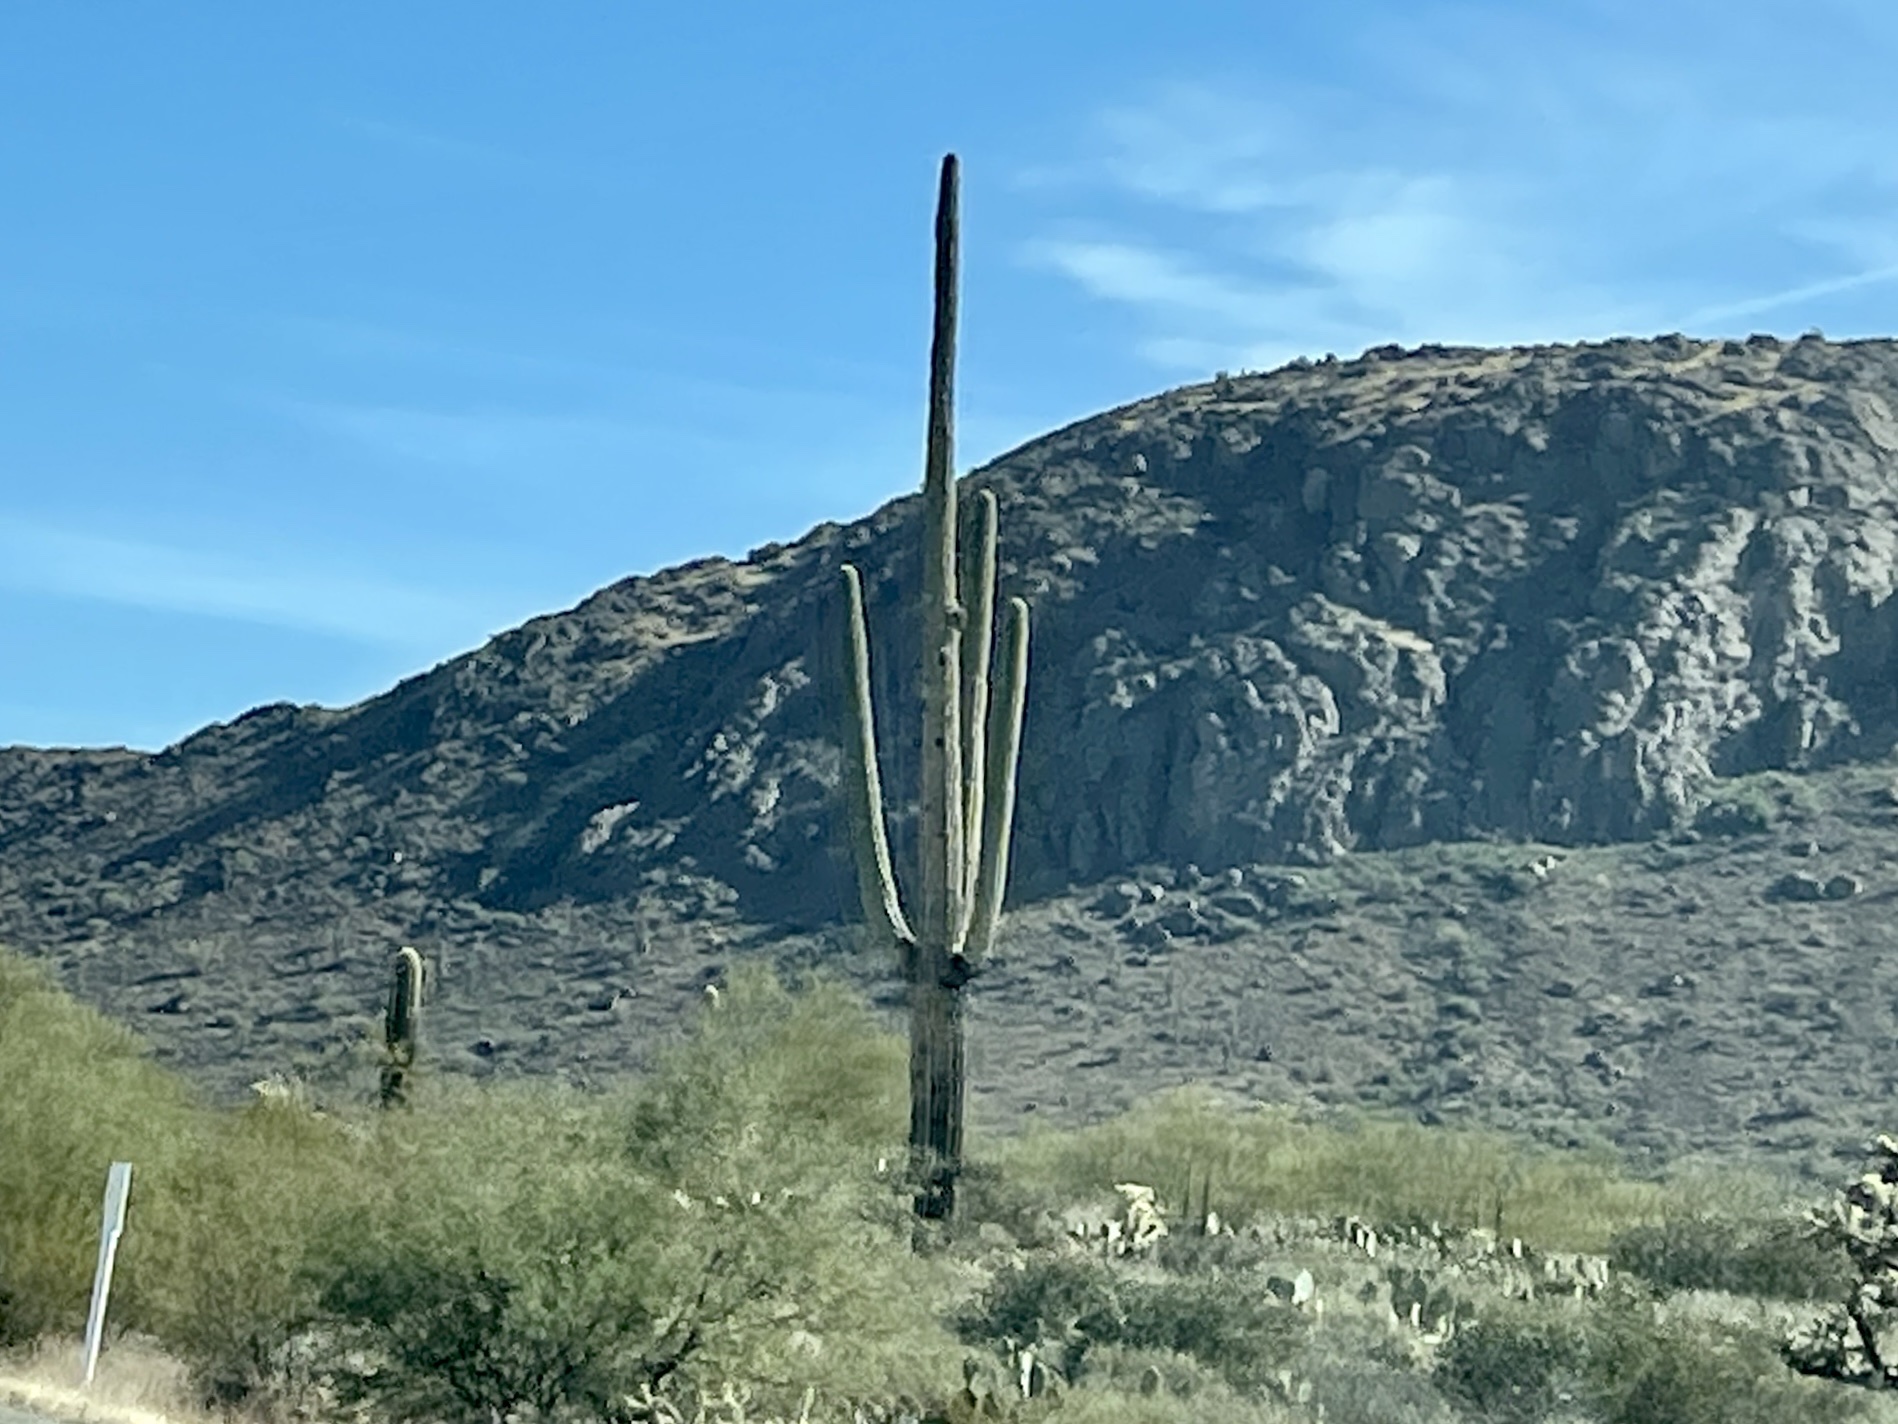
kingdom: Plantae
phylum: Tracheophyta
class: Magnoliopsida
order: Caryophyllales
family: Cactaceae
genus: Carnegiea
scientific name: Carnegiea gigantea
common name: Saguaro
